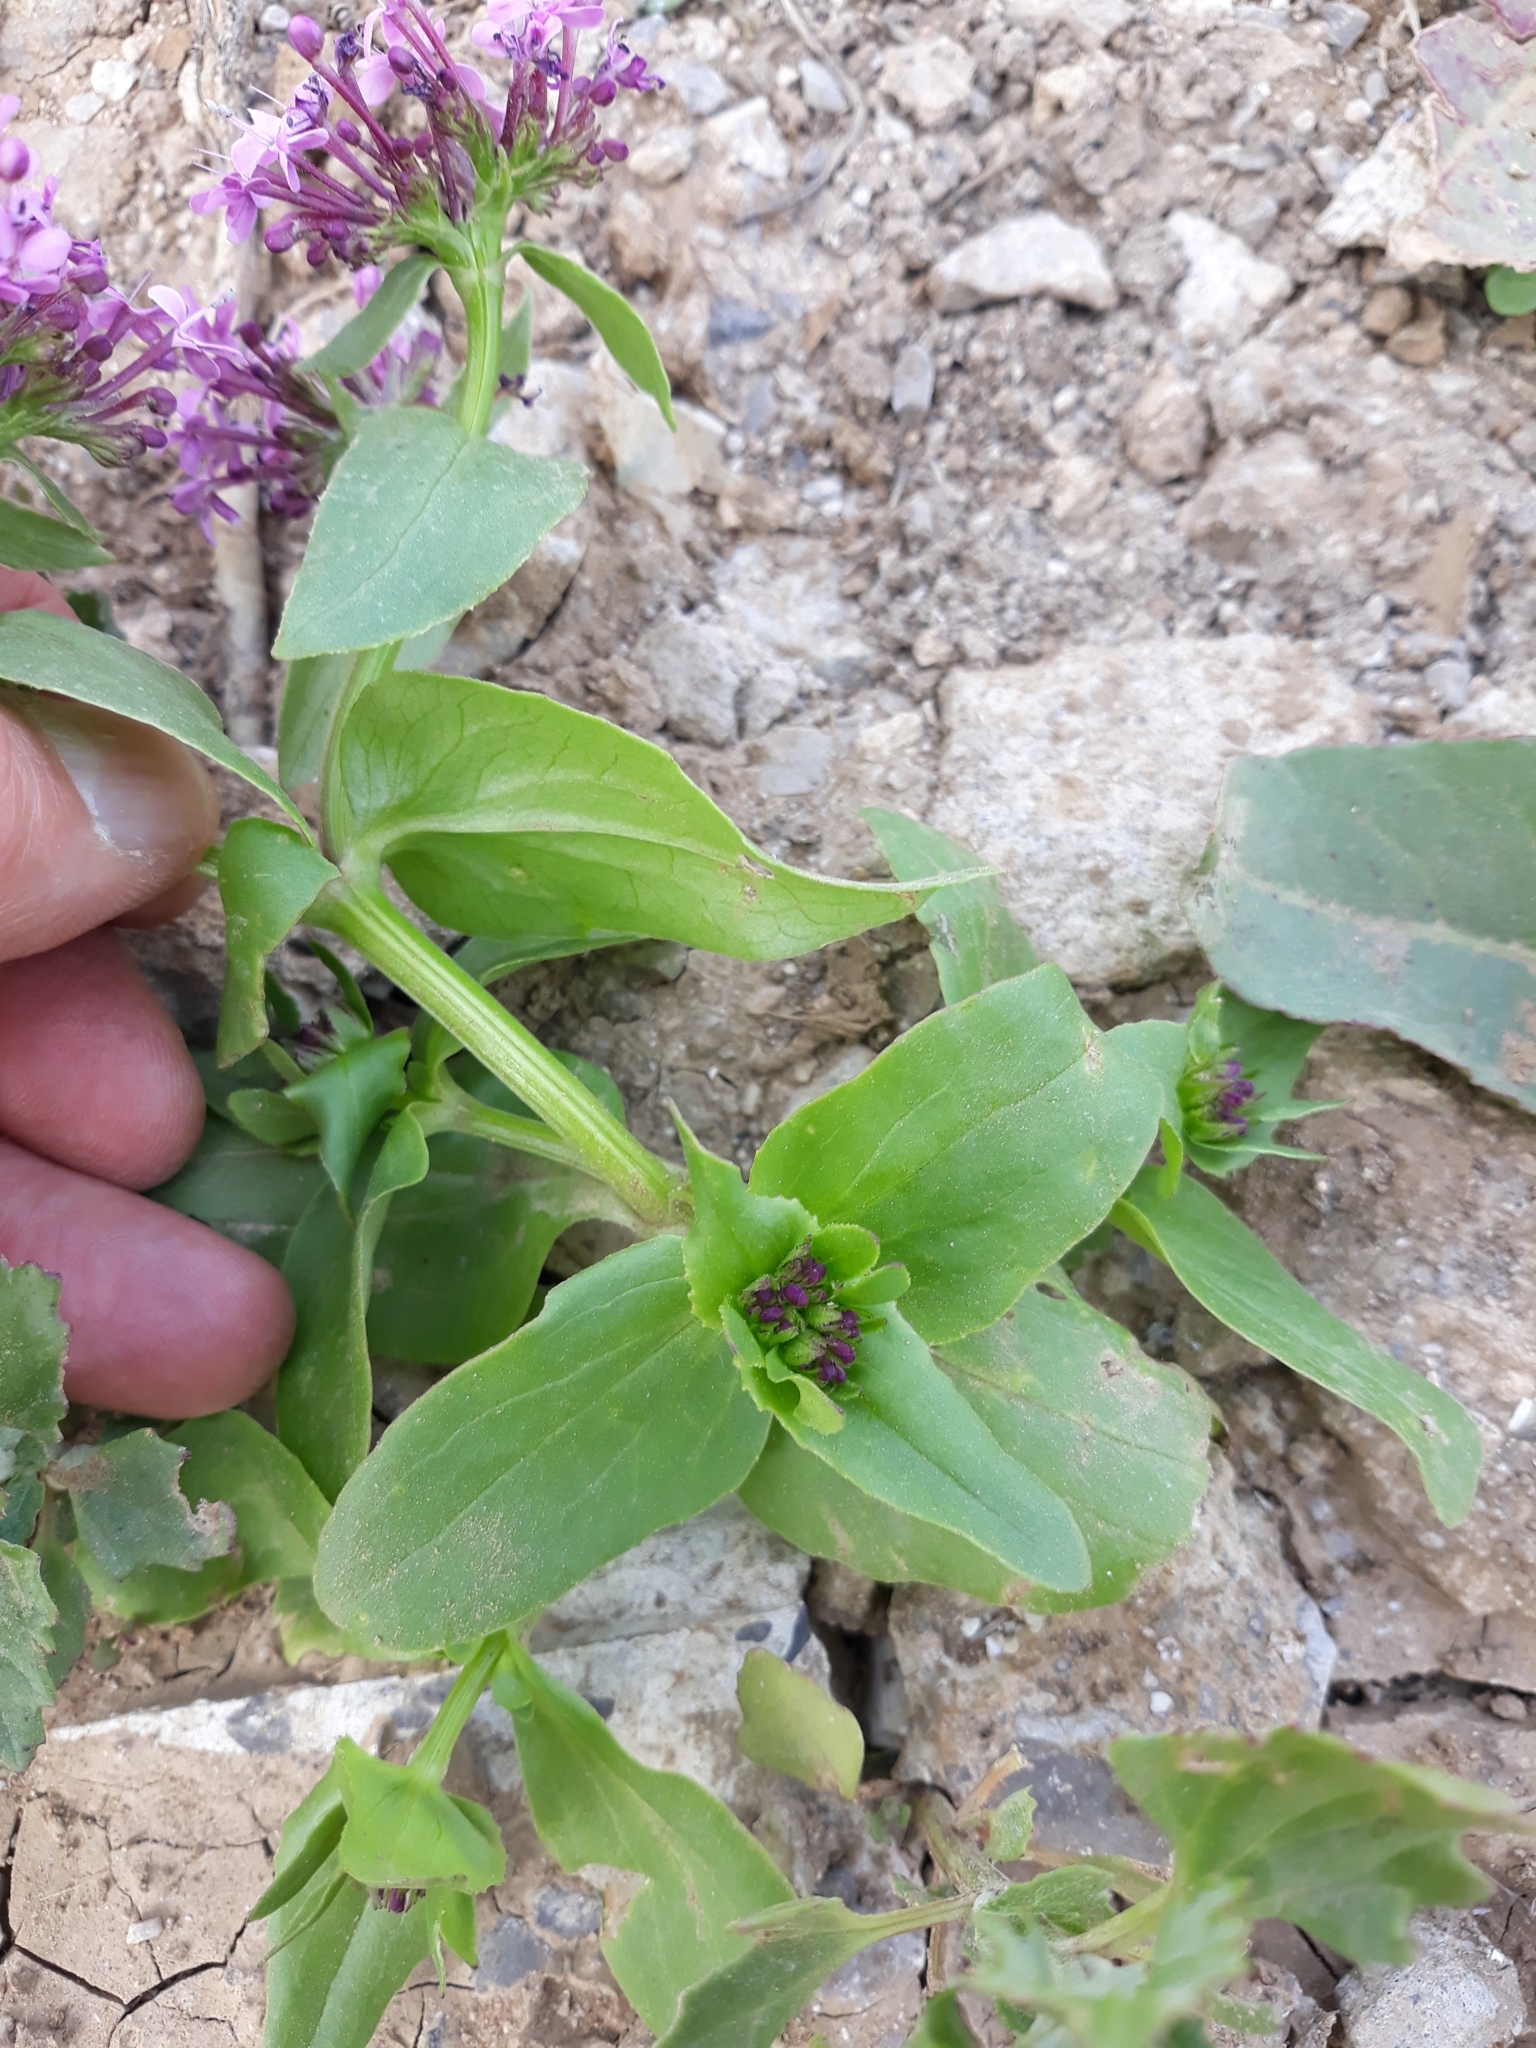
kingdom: Plantae
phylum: Tracheophyta
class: Magnoliopsida
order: Dipsacales
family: Caprifoliaceae
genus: Fedia
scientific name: Fedia graciliflora
